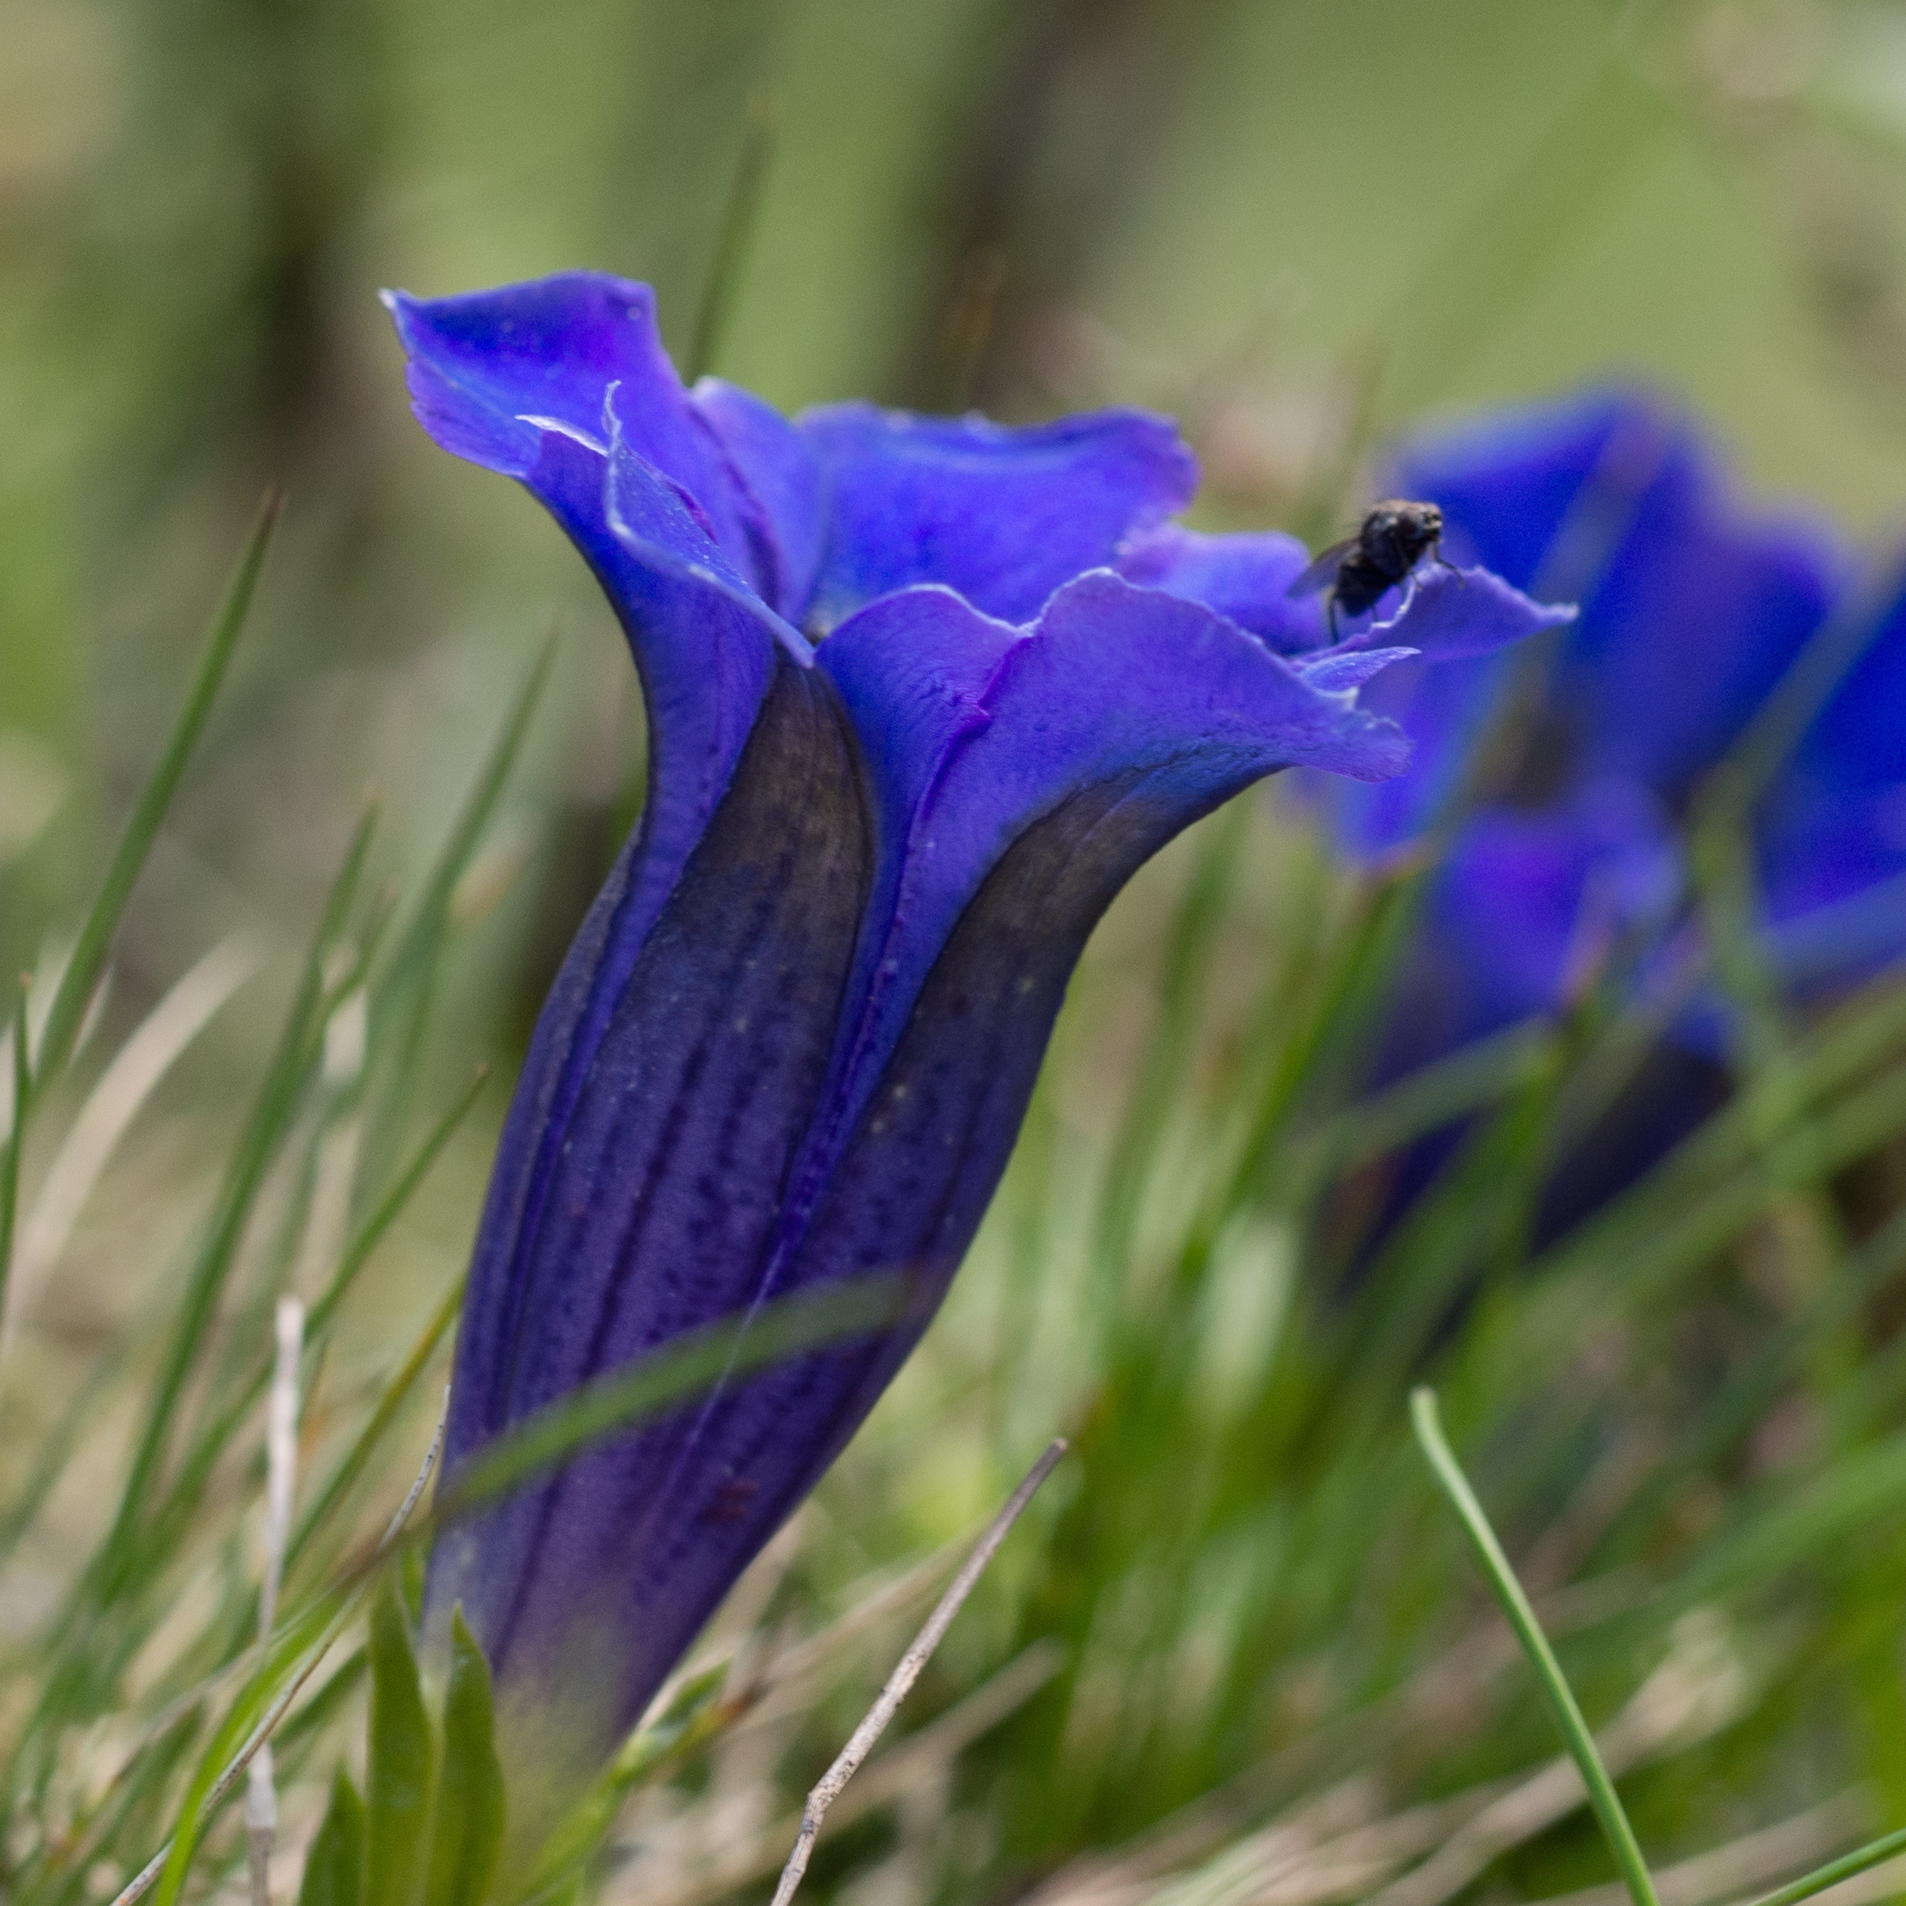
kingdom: Plantae
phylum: Tracheophyta
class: Magnoliopsida
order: Gentianales
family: Gentianaceae
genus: Gentiana
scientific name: Gentiana acaulis
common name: Trumpet gentian
